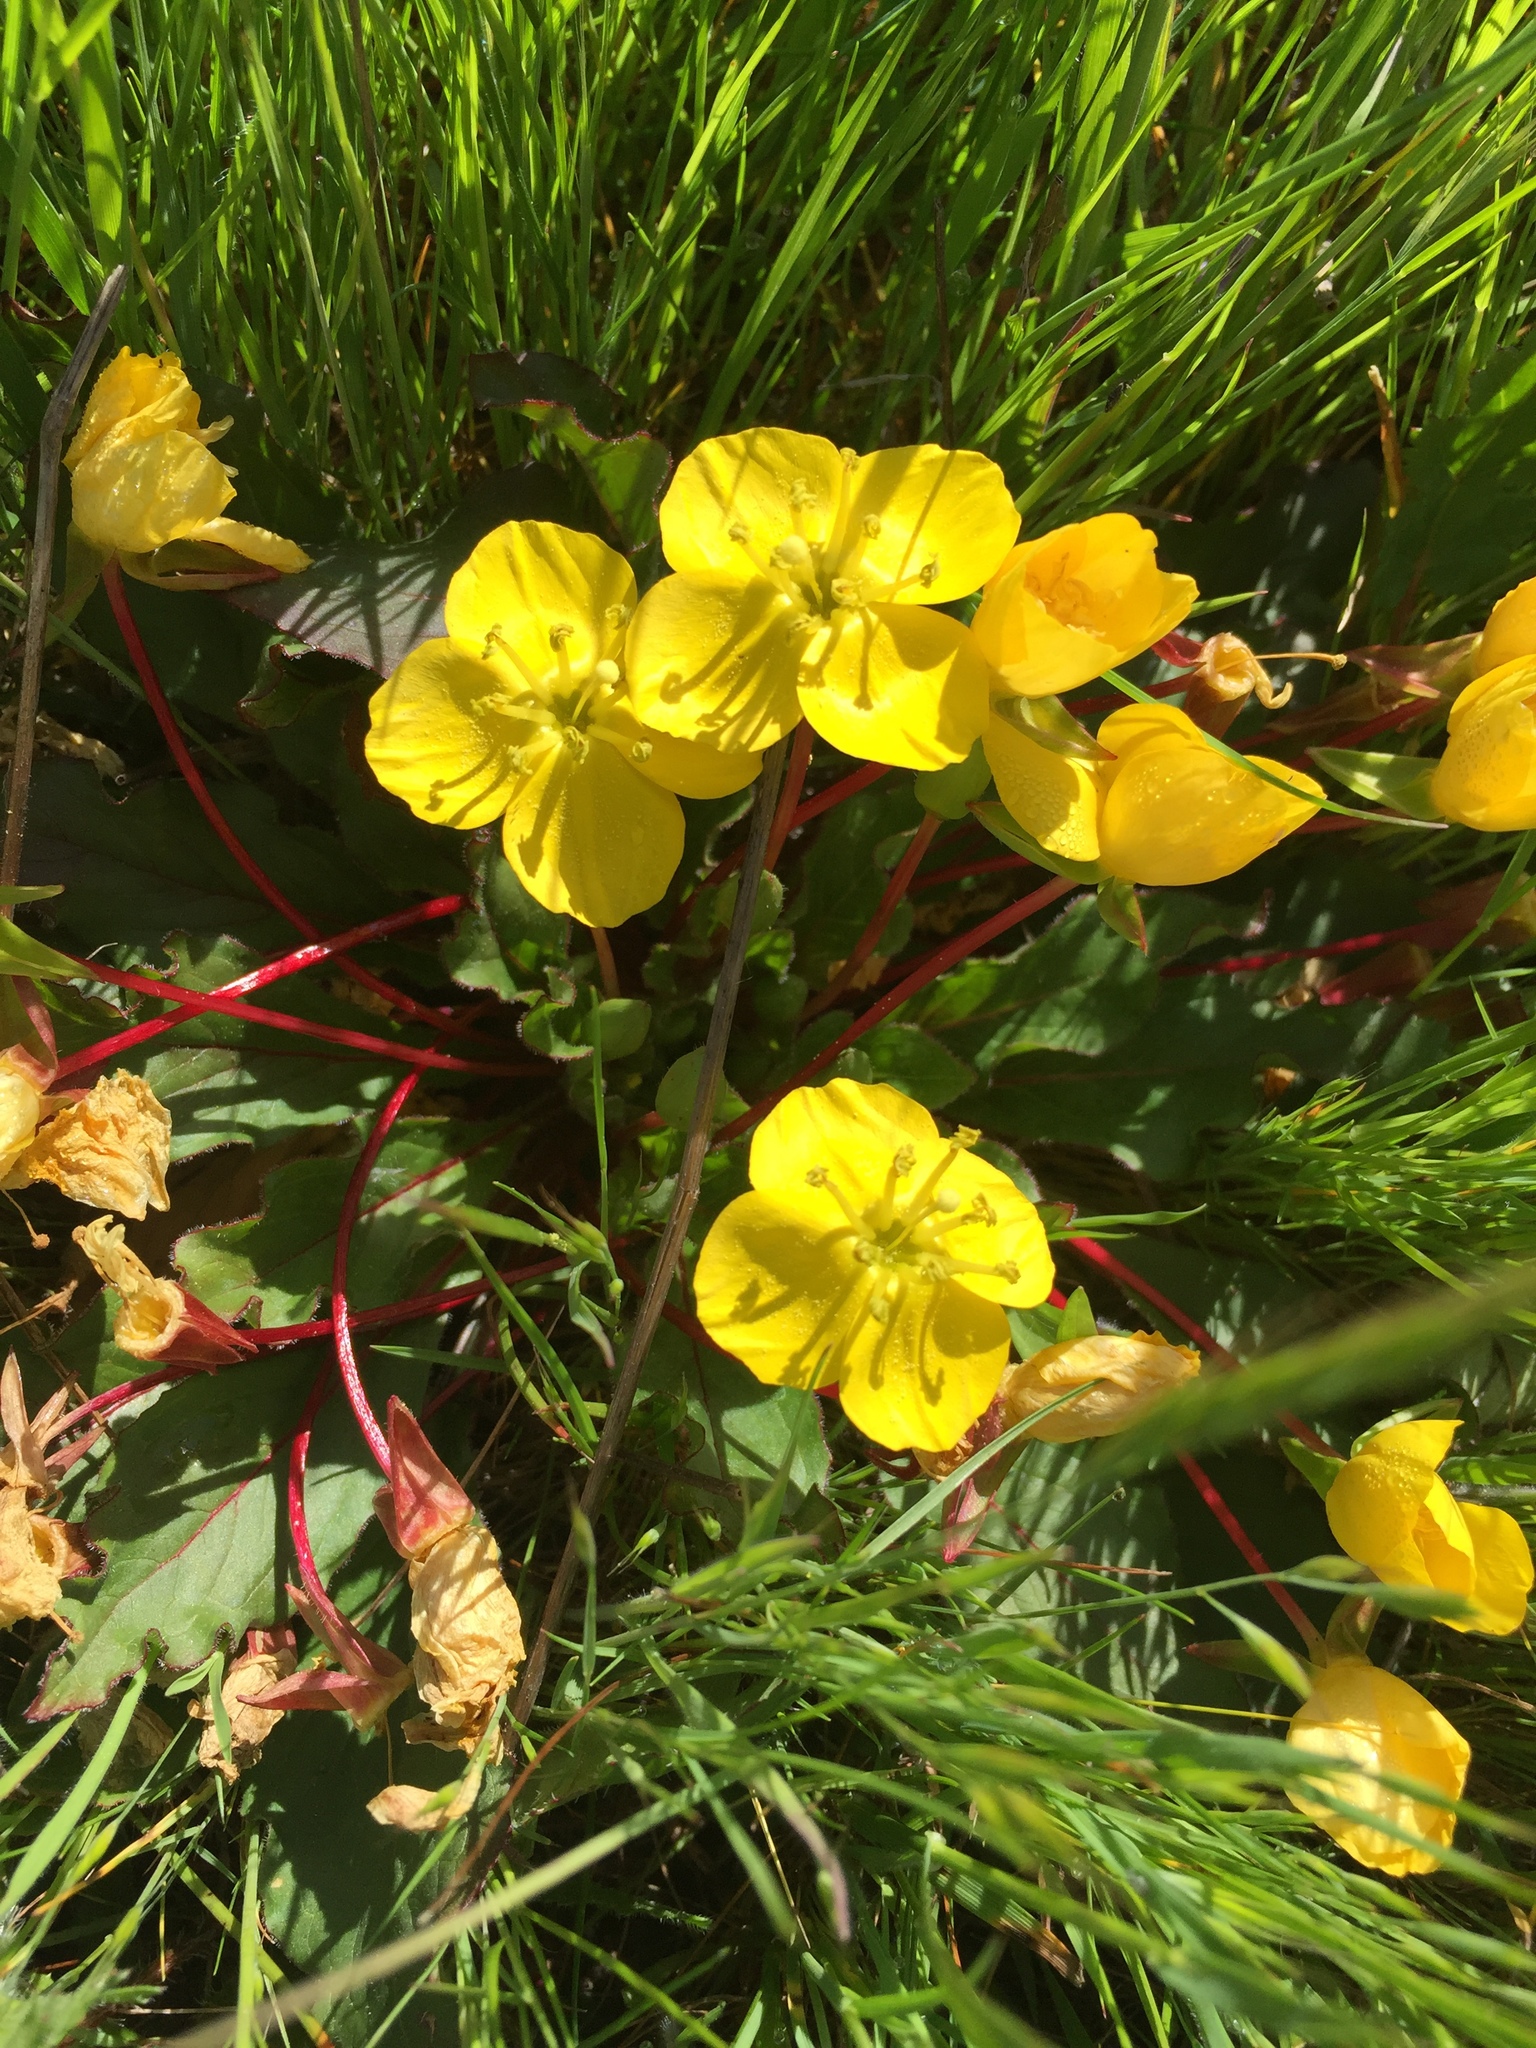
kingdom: Plantae
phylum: Tracheophyta
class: Magnoliopsida
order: Myrtales
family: Onagraceae
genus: Taraxia
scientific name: Taraxia ovata
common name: Goldeneggs
